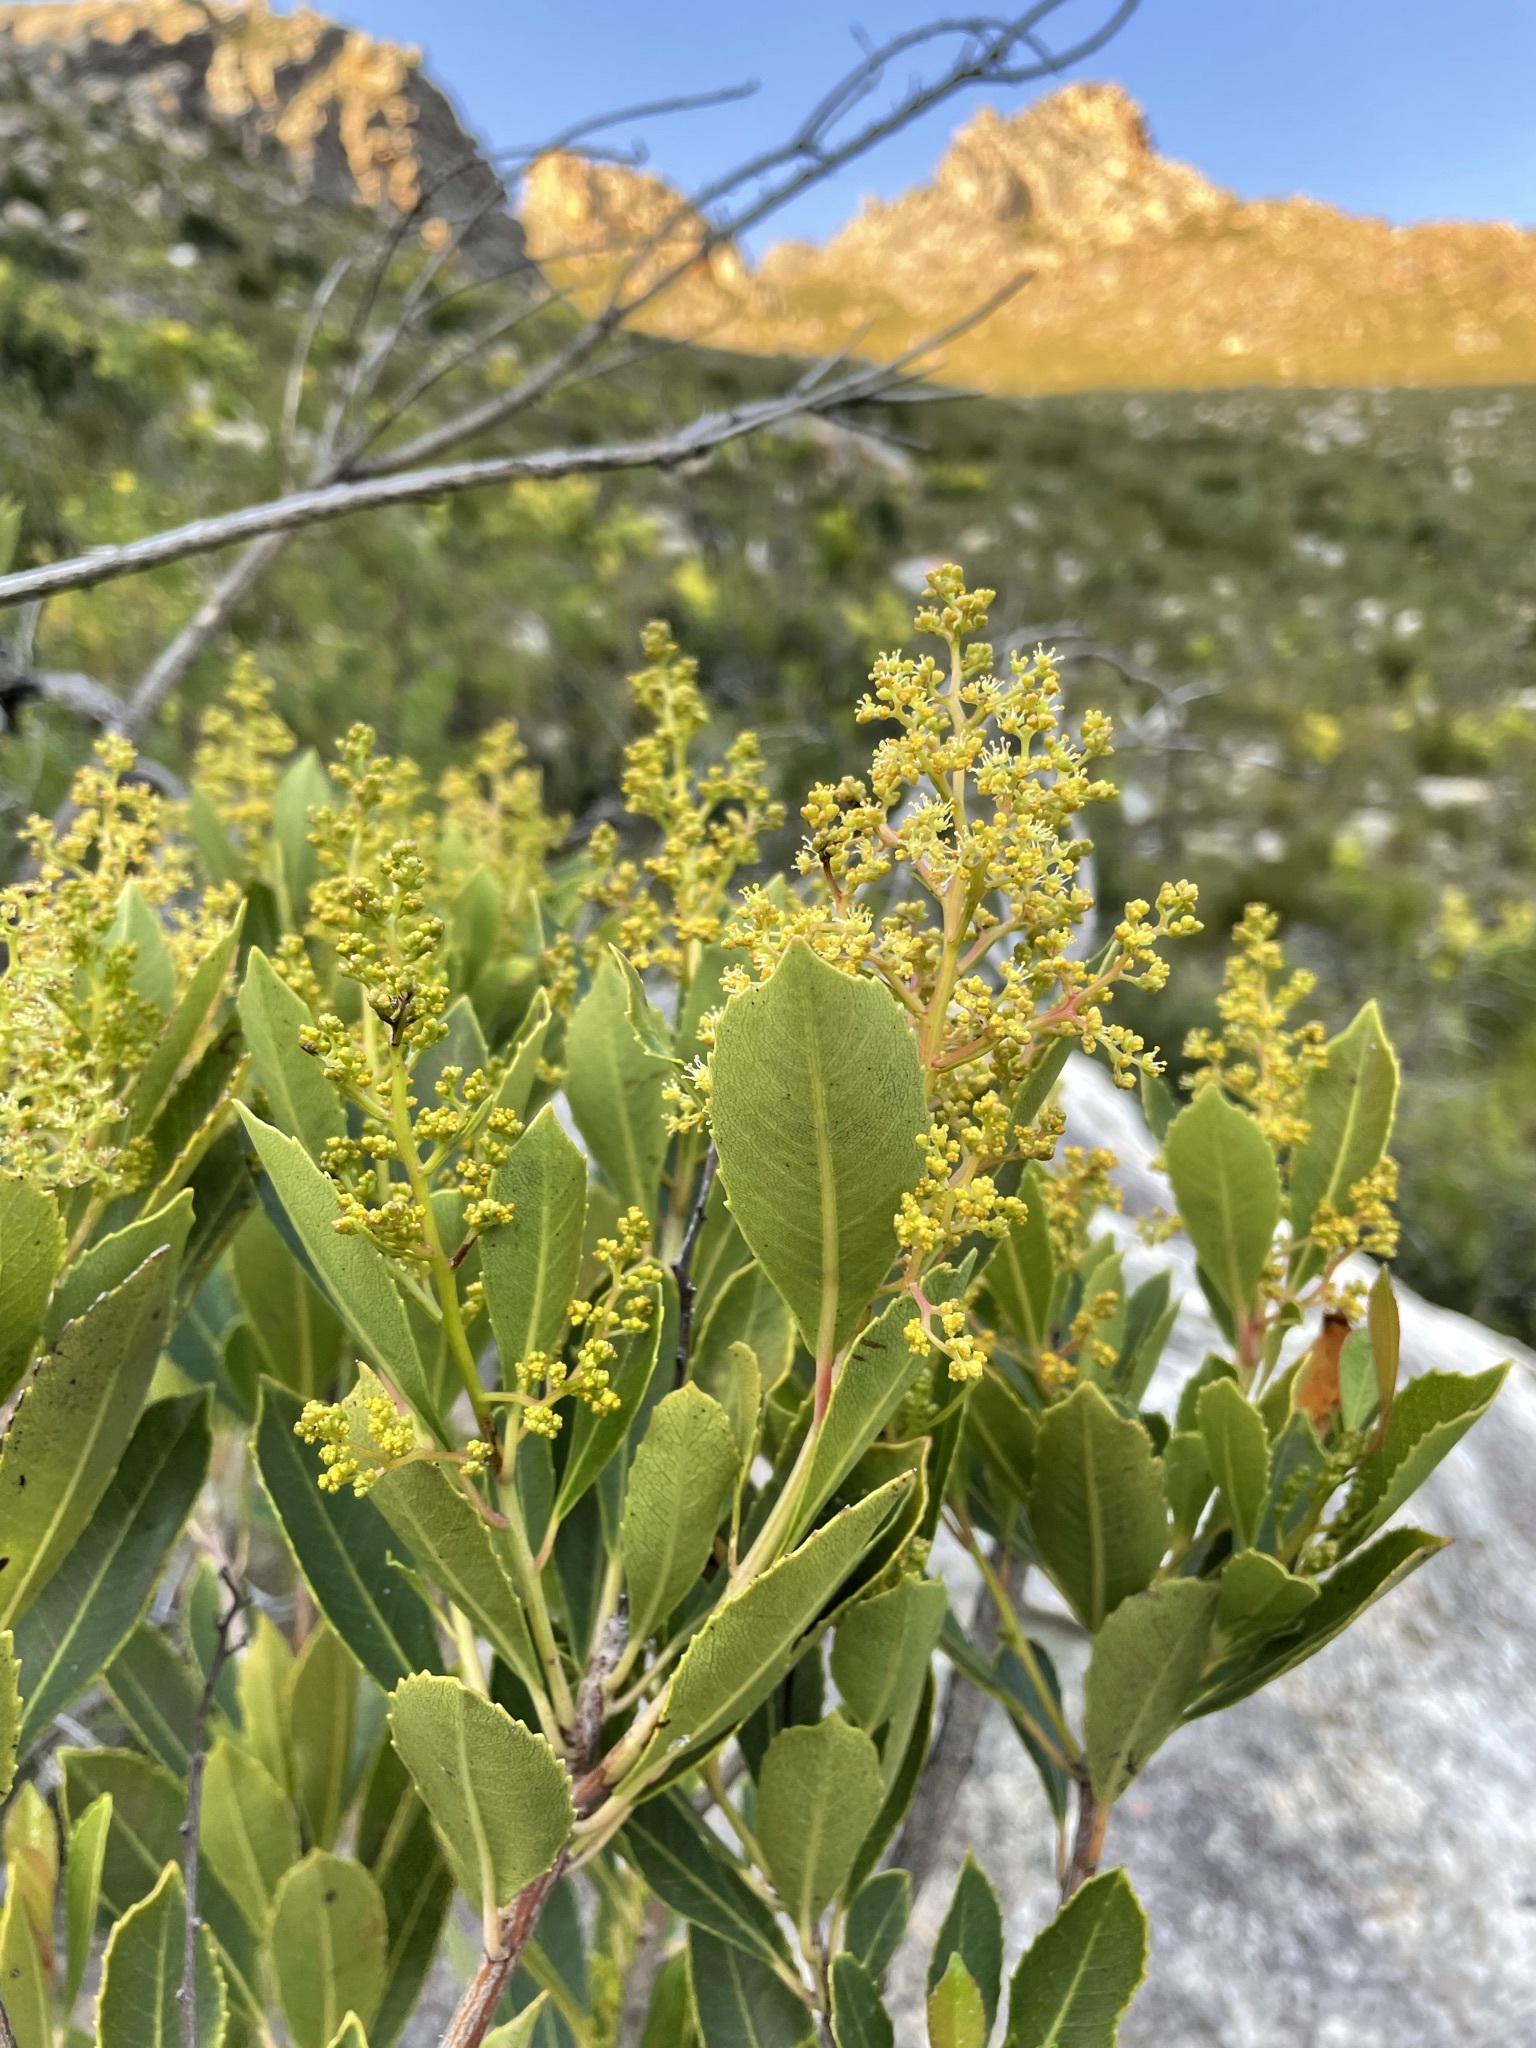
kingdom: Plantae
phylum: Tracheophyta
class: Magnoliopsida
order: Sapindales
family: Anacardiaceae
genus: Laurophyllus
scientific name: Laurophyllus capensis
